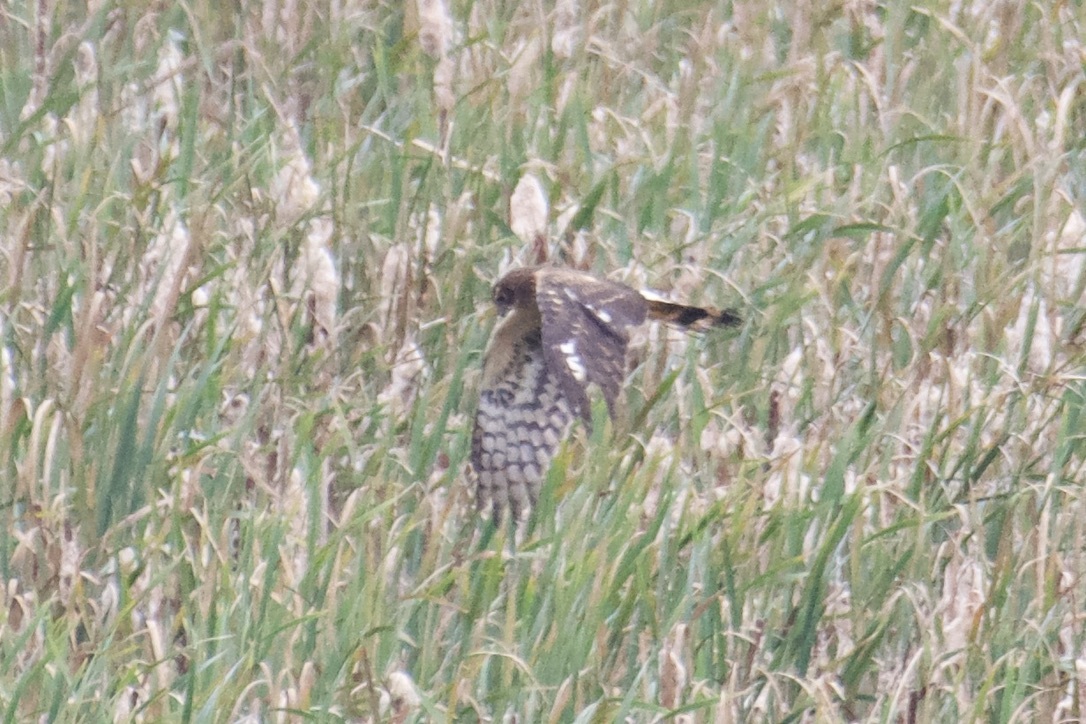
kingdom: Animalia
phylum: Chordata
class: Aves
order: Accipitriformes
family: Accipitridae
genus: Circus
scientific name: Circus cyaneus
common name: Hen harrier
